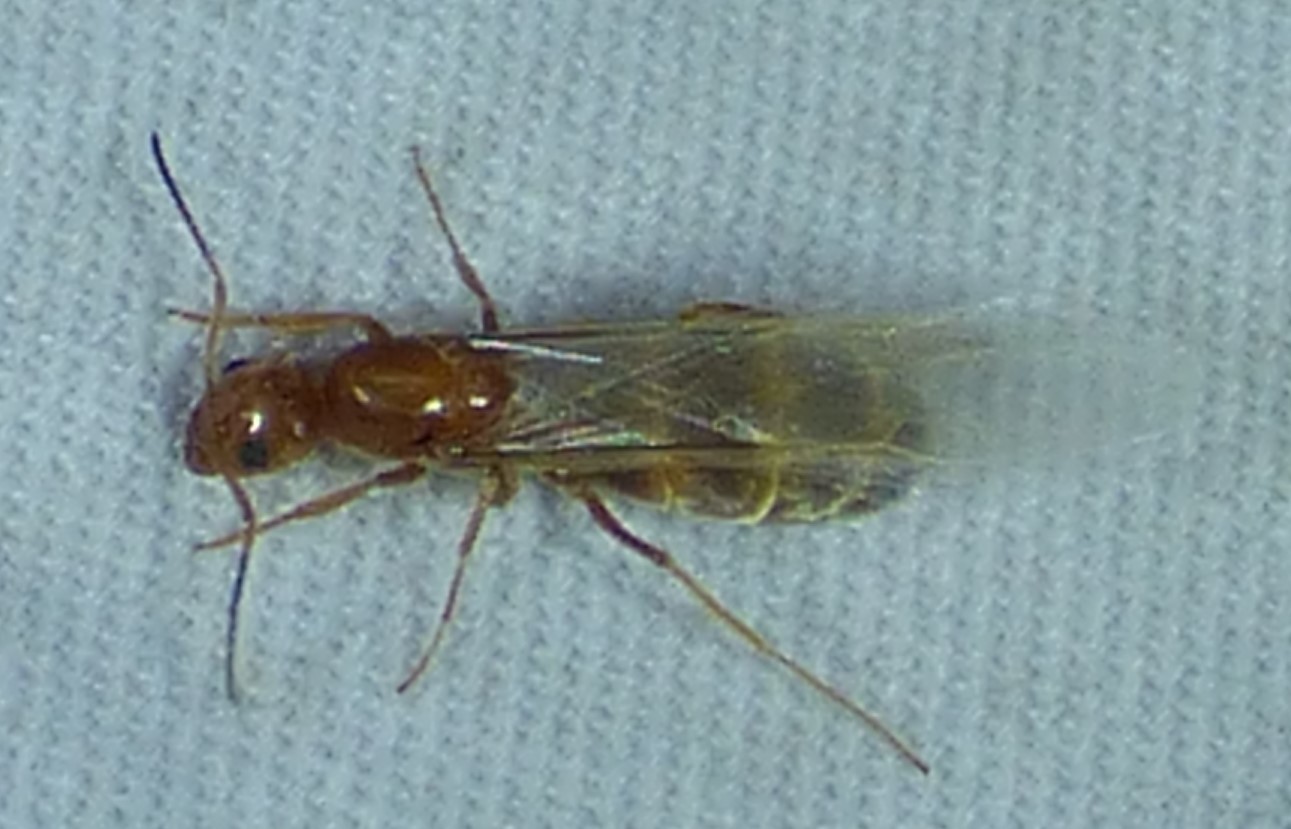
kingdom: Animalia
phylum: Arthropoda
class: Insecta
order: Hymenoptera
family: Formicidae
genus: Dorymyrmex
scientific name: Dorymyrmex bureni
